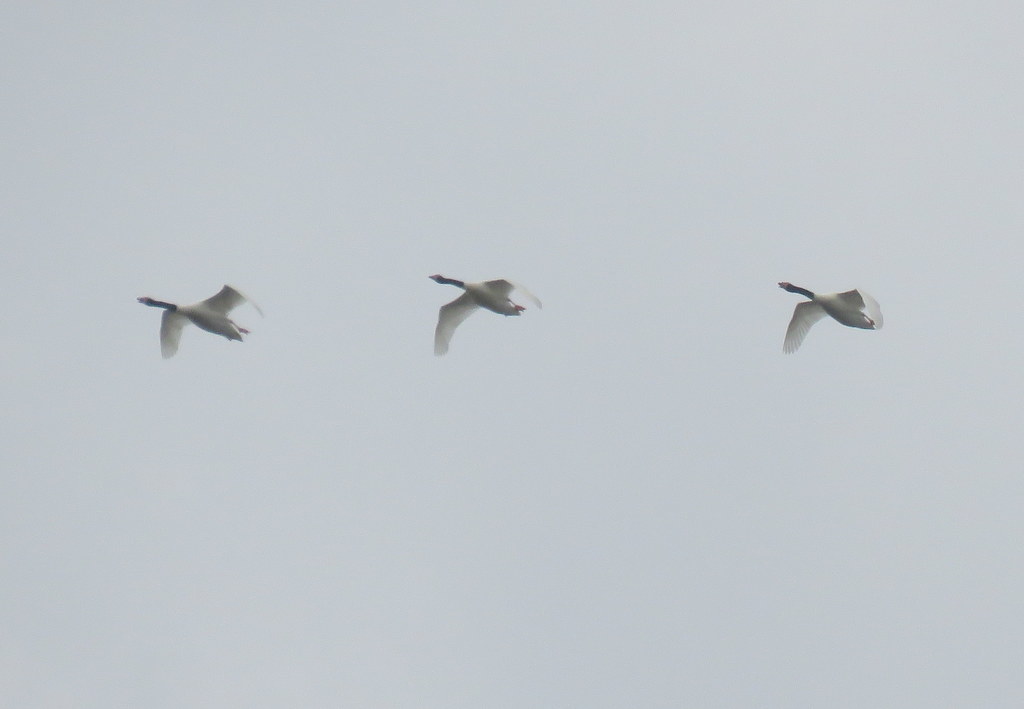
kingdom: Animalia
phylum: Chordata
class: Aves
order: Anseriformes
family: Anatidae
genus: Cygnus
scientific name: Cygnus melancoryphus
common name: Black-necked swan
